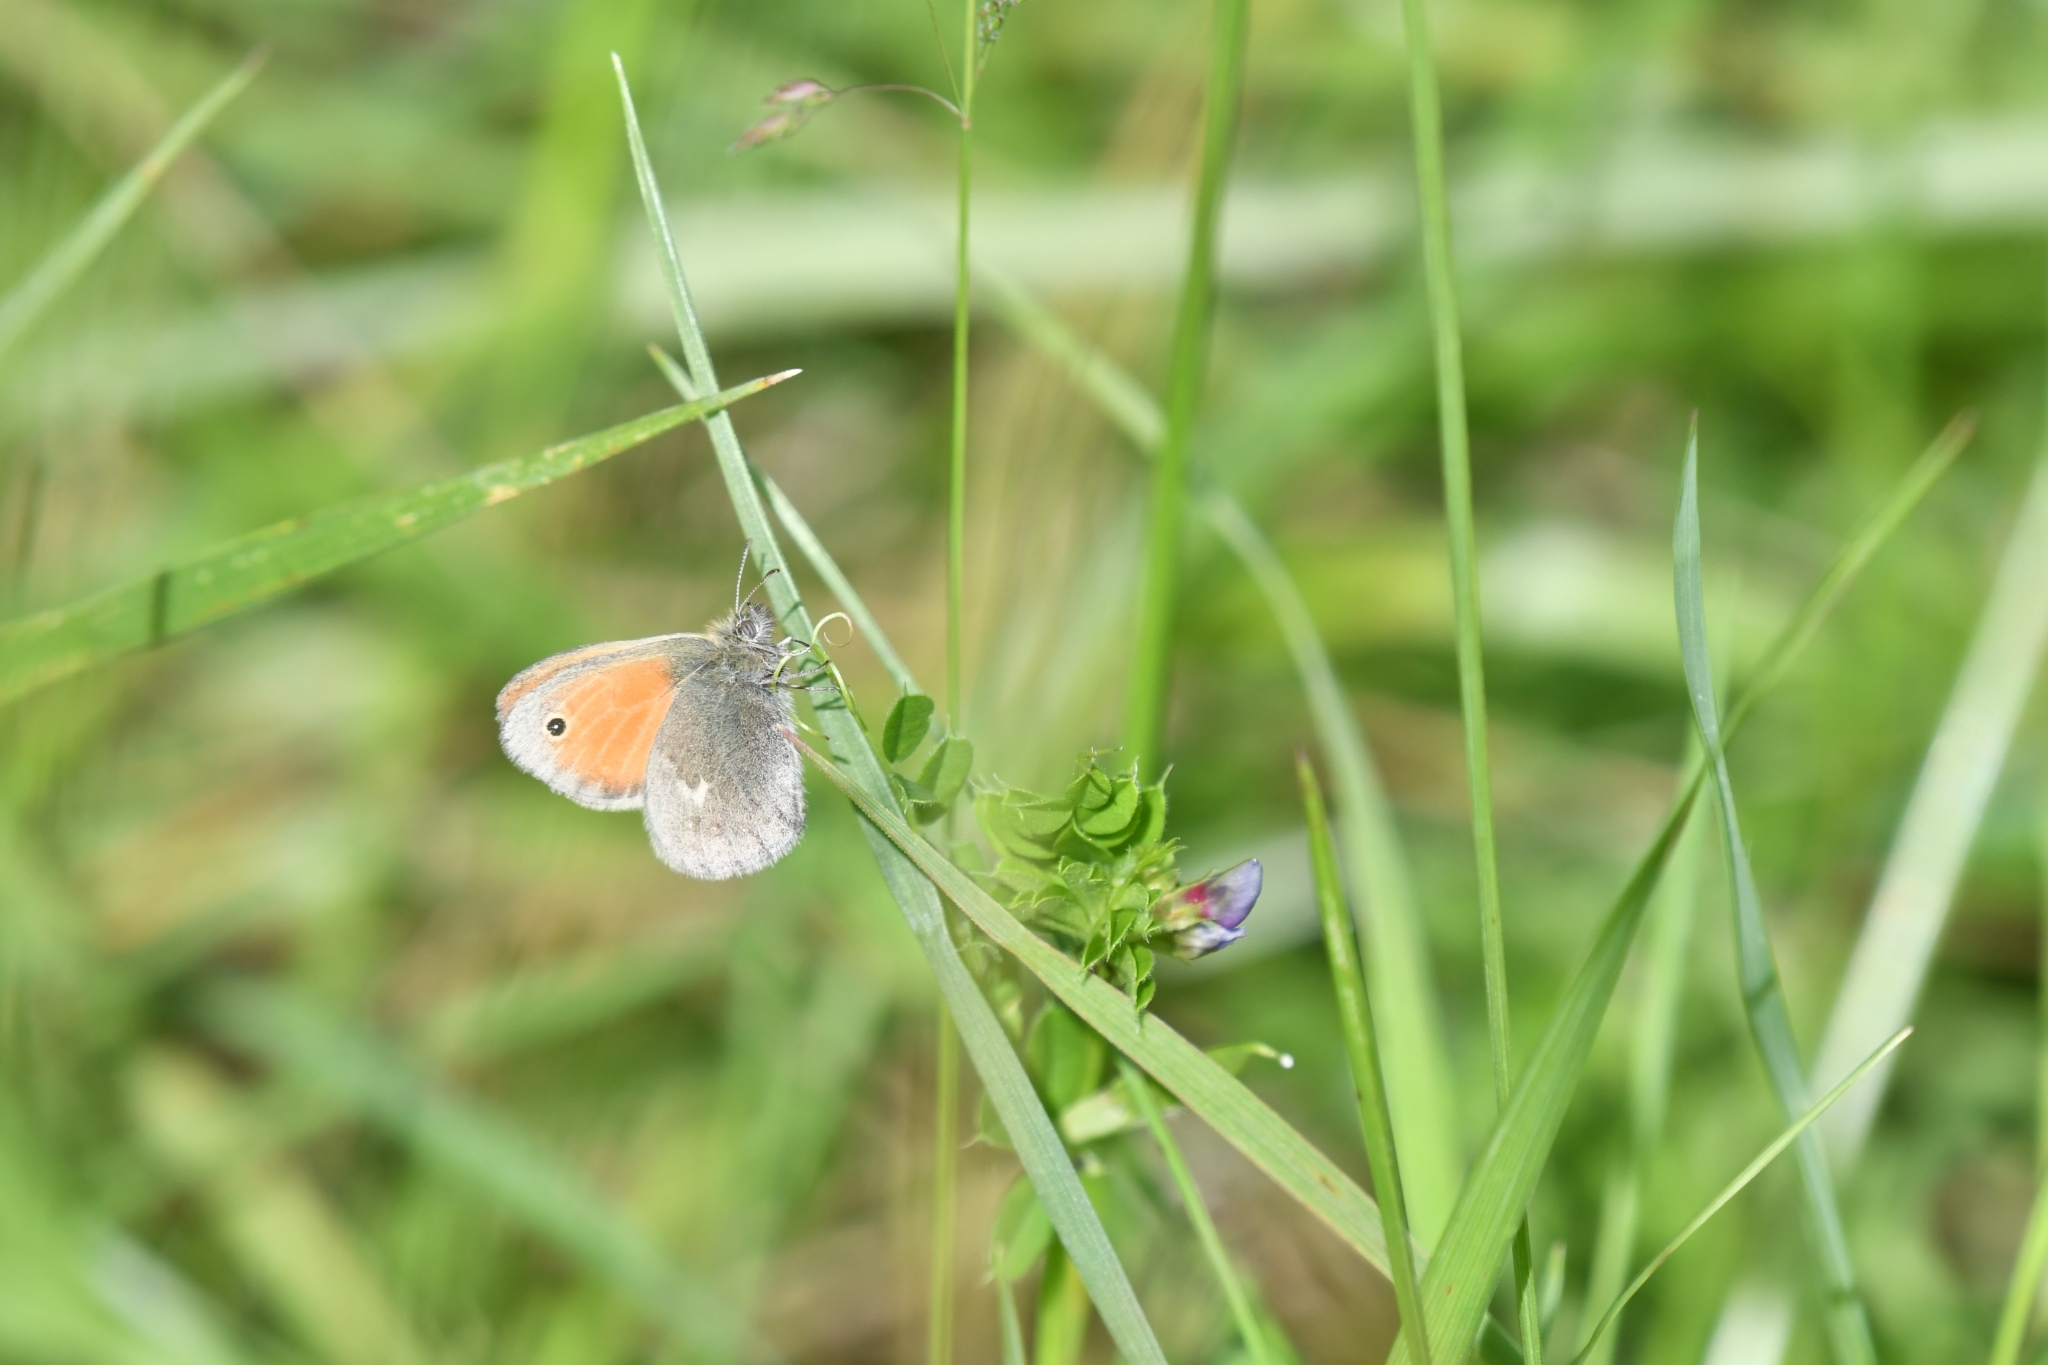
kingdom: Animalia
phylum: Arthropoda
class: Insecta
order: Lepidoptera
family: Nymphalidae
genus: Coenonympha
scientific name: Coenonympha pamphilus
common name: Small heath
